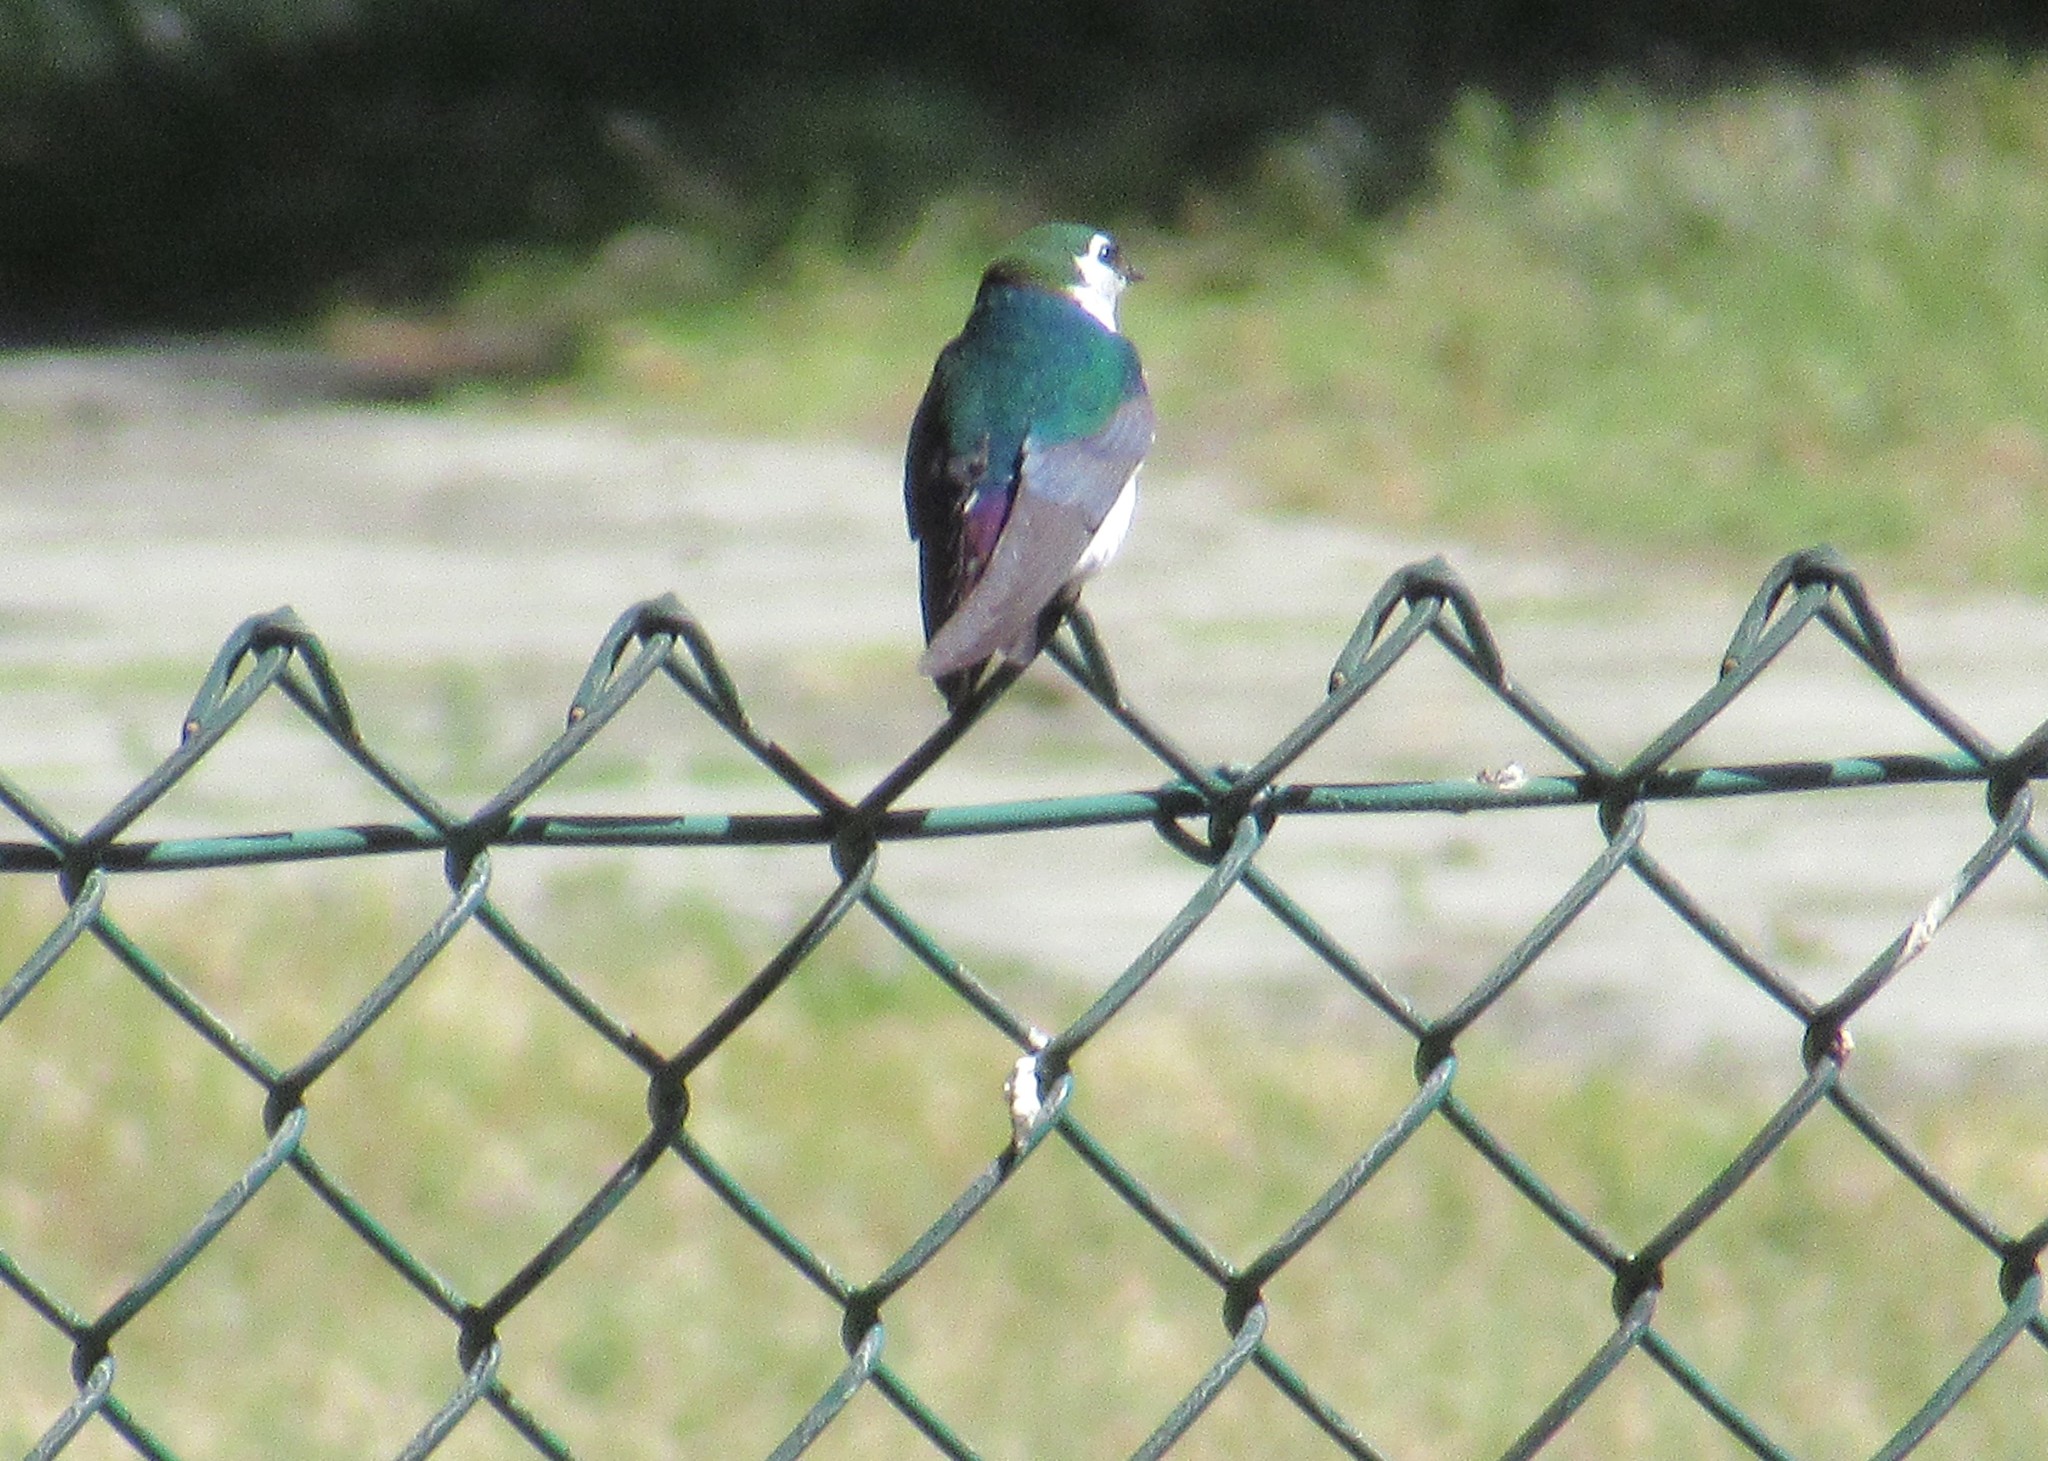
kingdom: Animalia
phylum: Chordata
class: Aves
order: Passeriformes
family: Hirundinidae
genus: Tachycineta
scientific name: Tachycineta thalassina
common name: Violet-green swallow
